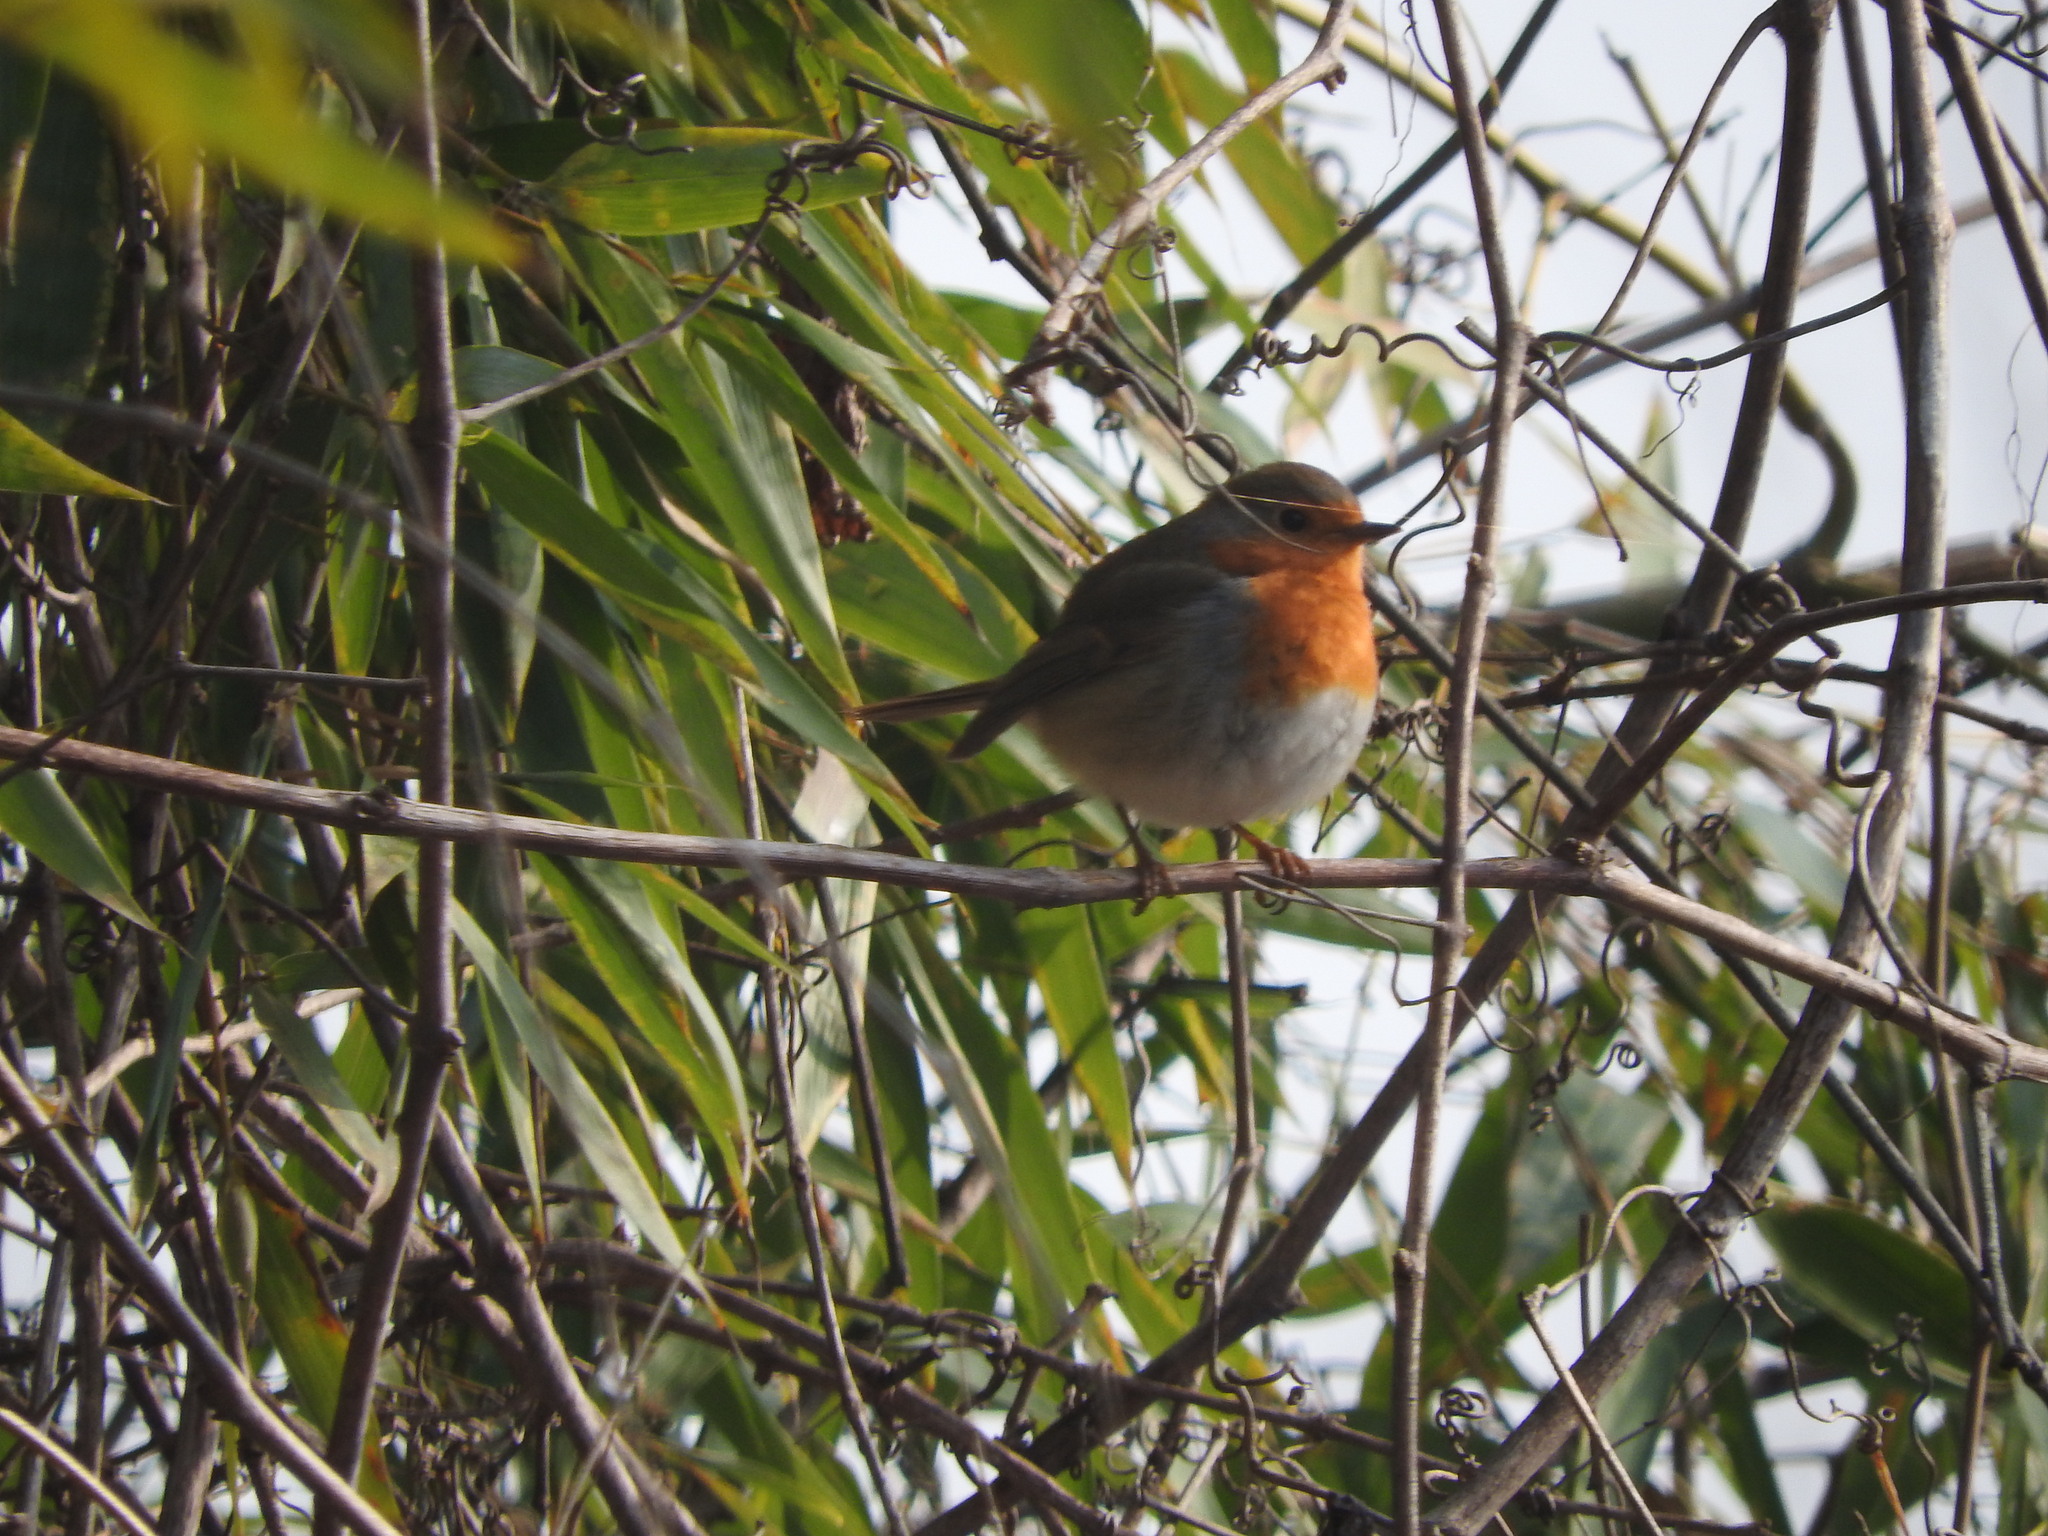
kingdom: Animalia
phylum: Chordata
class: Aves
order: Passeriformes
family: Muscicapidae
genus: Erithacus
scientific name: Erithacus rubecula
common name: European robin
